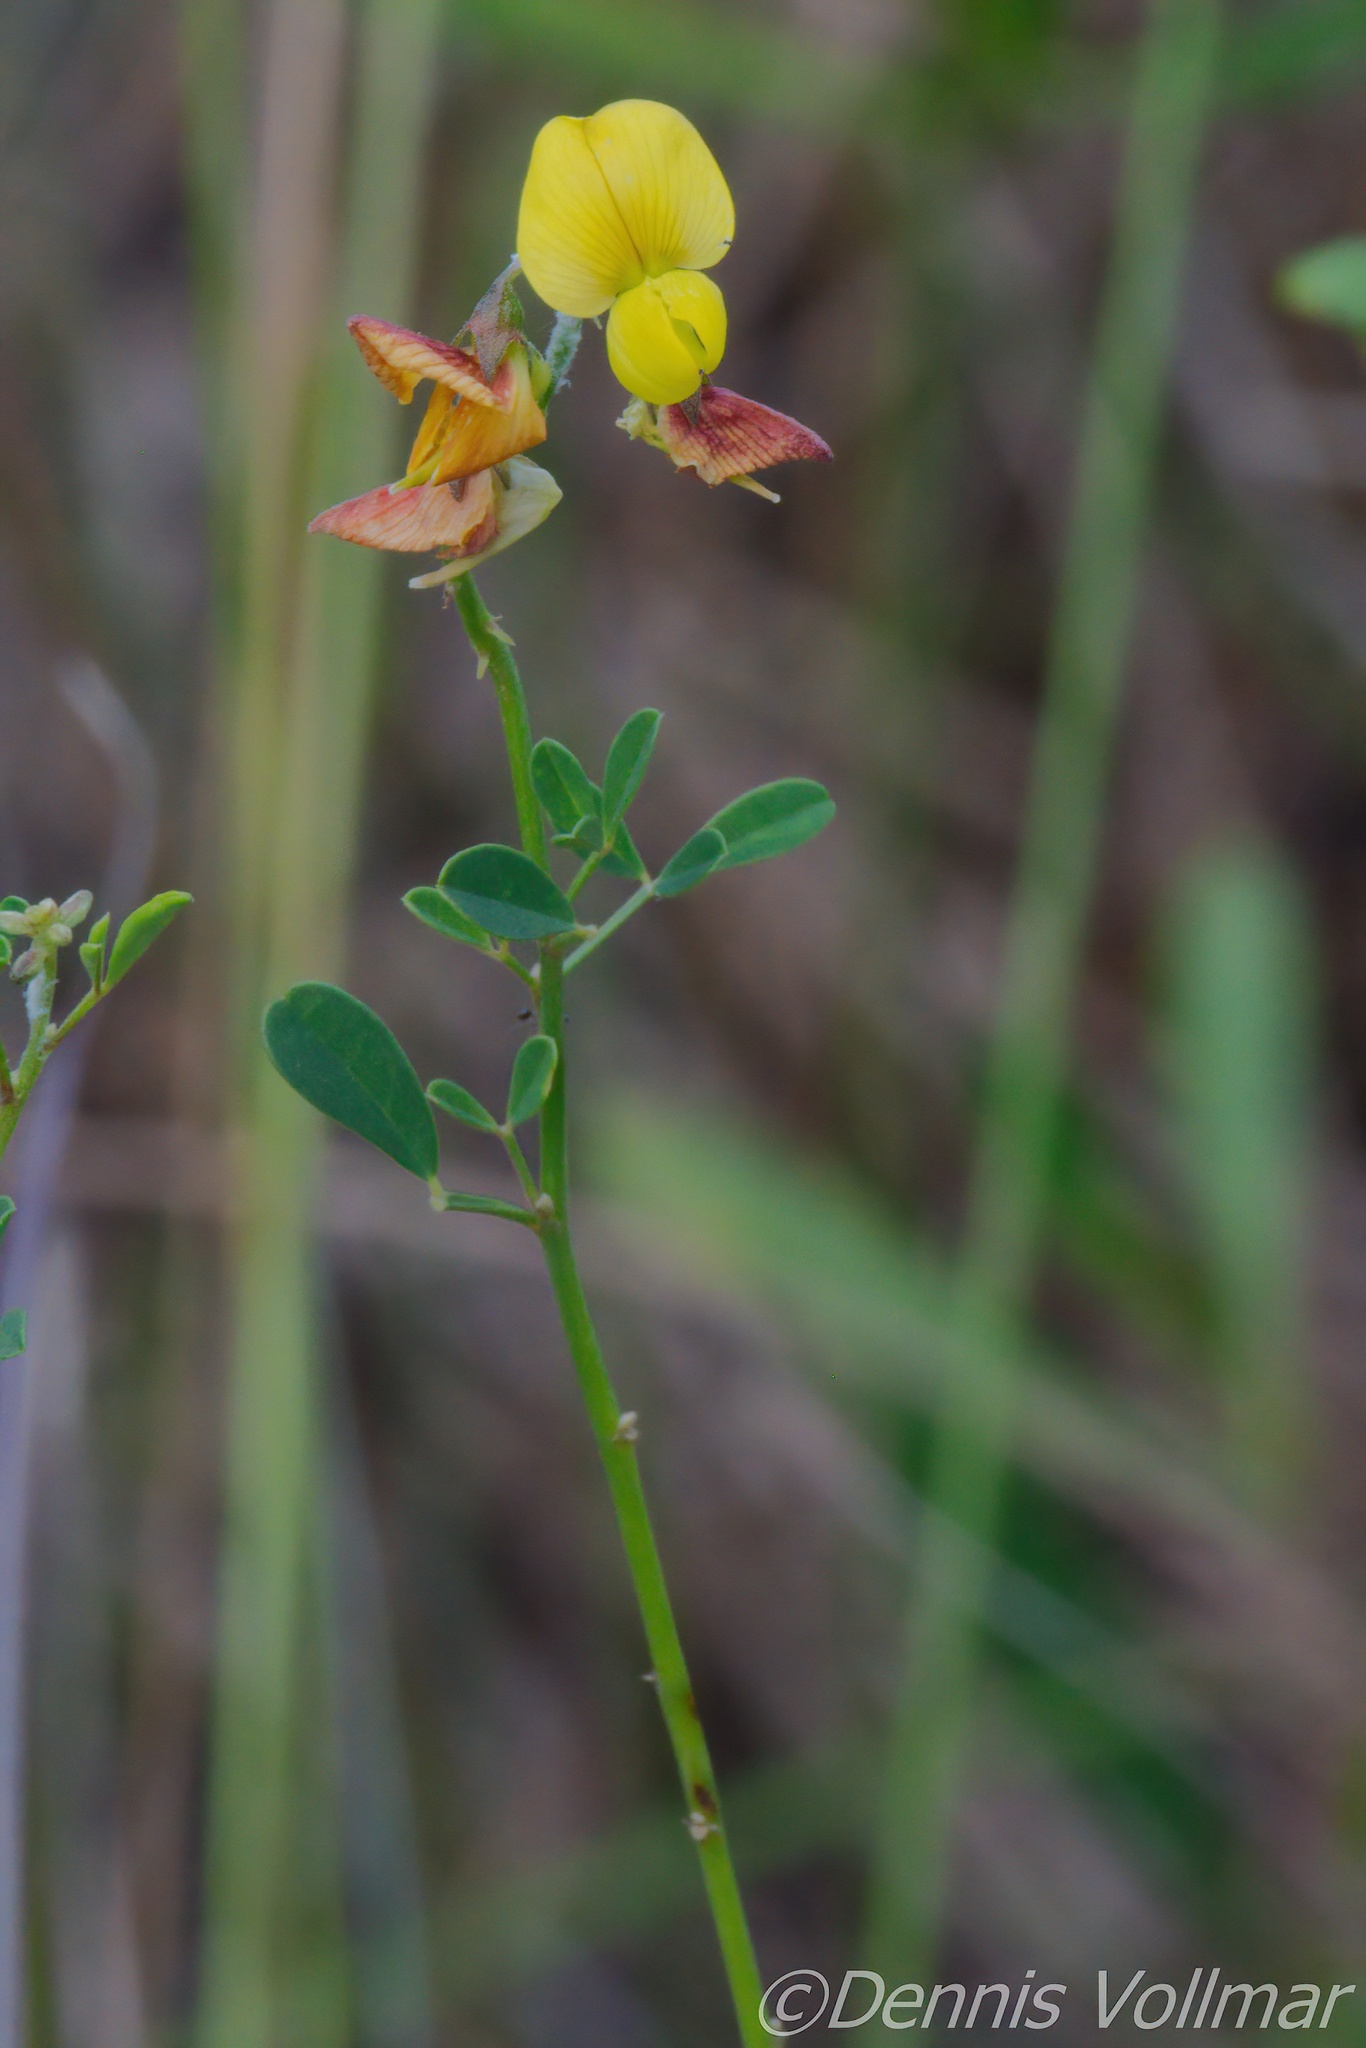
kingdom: Plantae
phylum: Tracheophyta
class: Magnoliopsida
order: Fabales
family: Fabaceae
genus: Crotalaria
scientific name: Crotalaria pumila
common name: Low rattlebox
